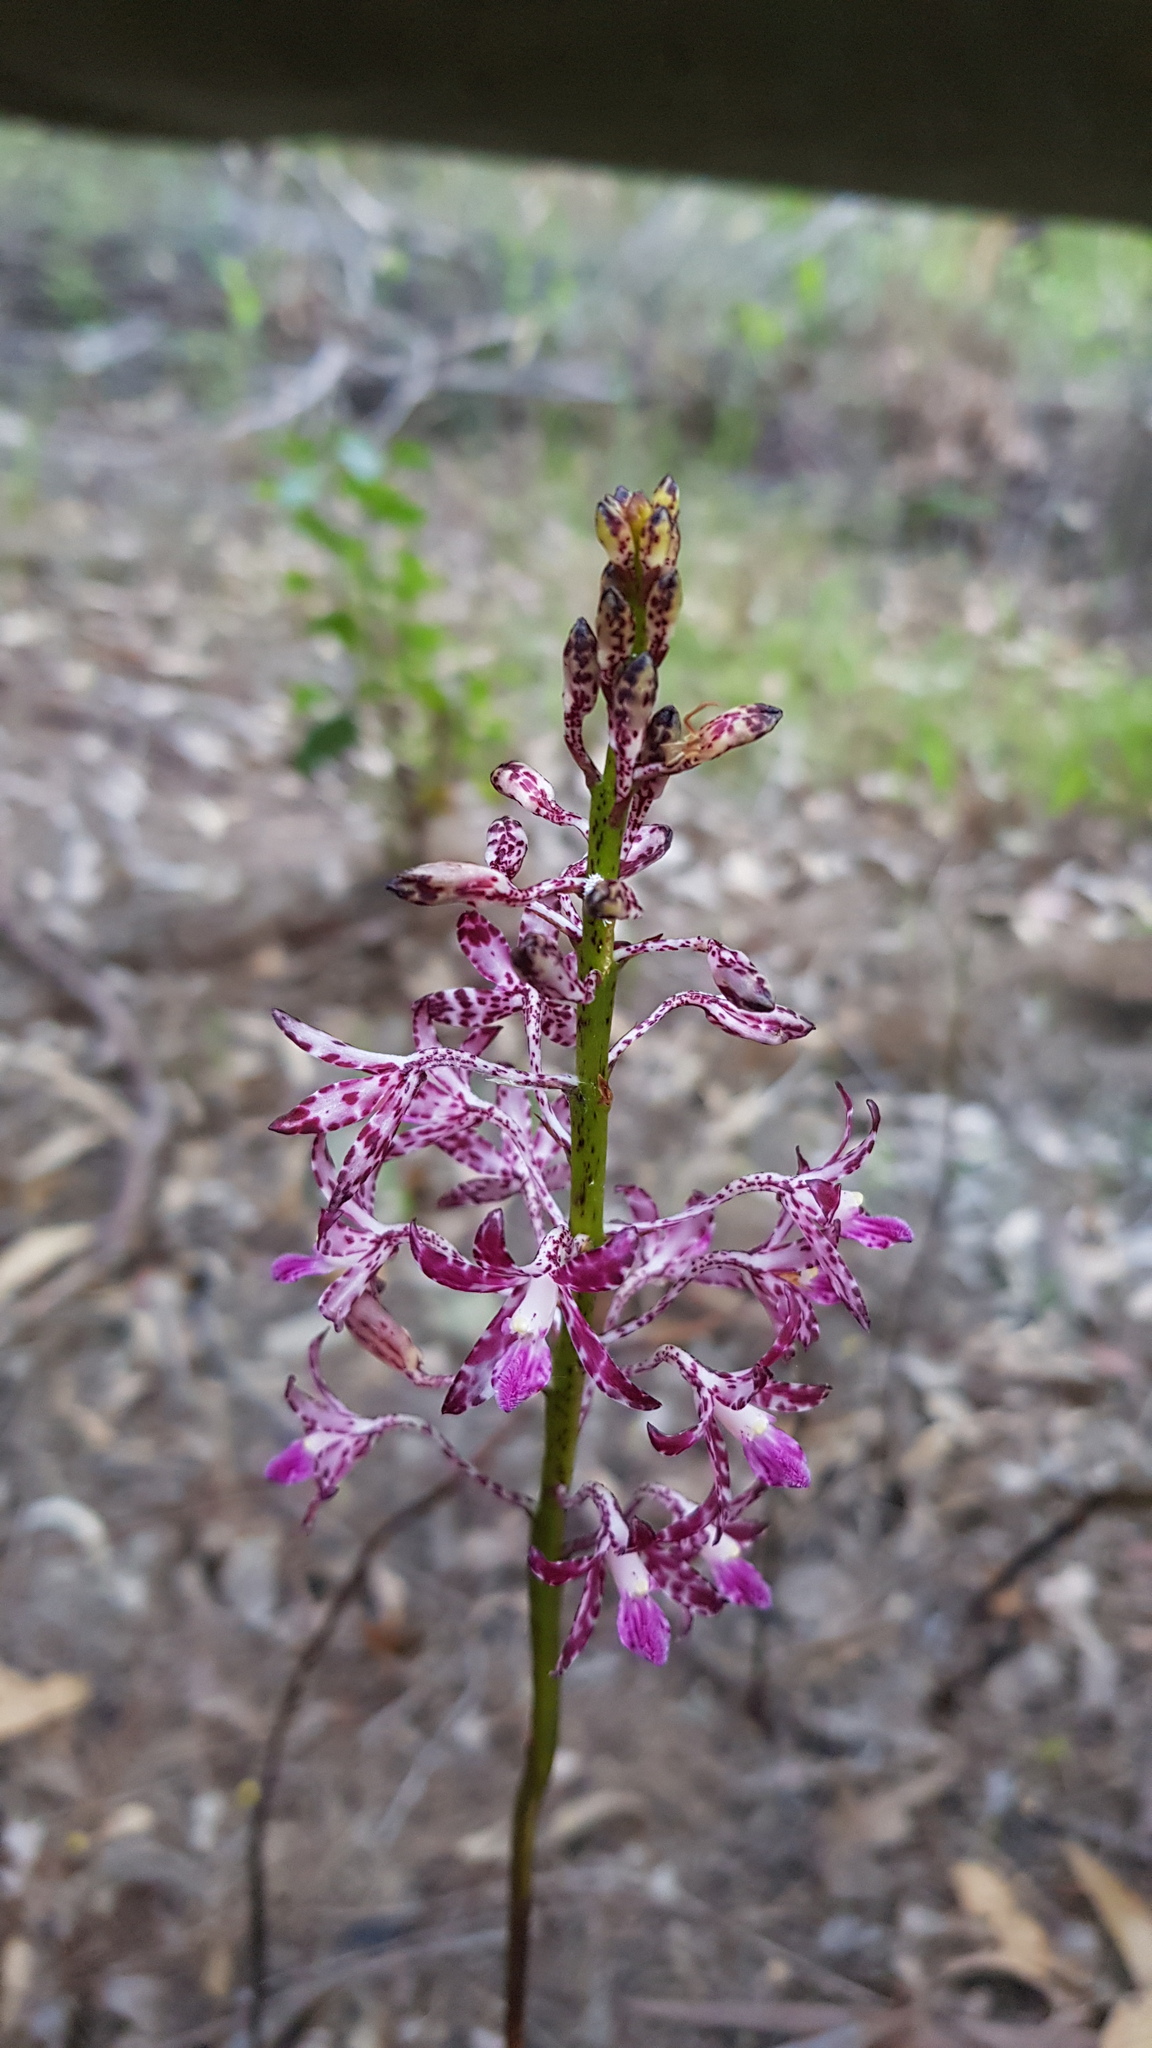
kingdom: Plantae
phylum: Tracheophyta
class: Liliopsida
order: Asparagales
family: Orchidaceae
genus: Dipodium
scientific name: Dipodium variegatum
